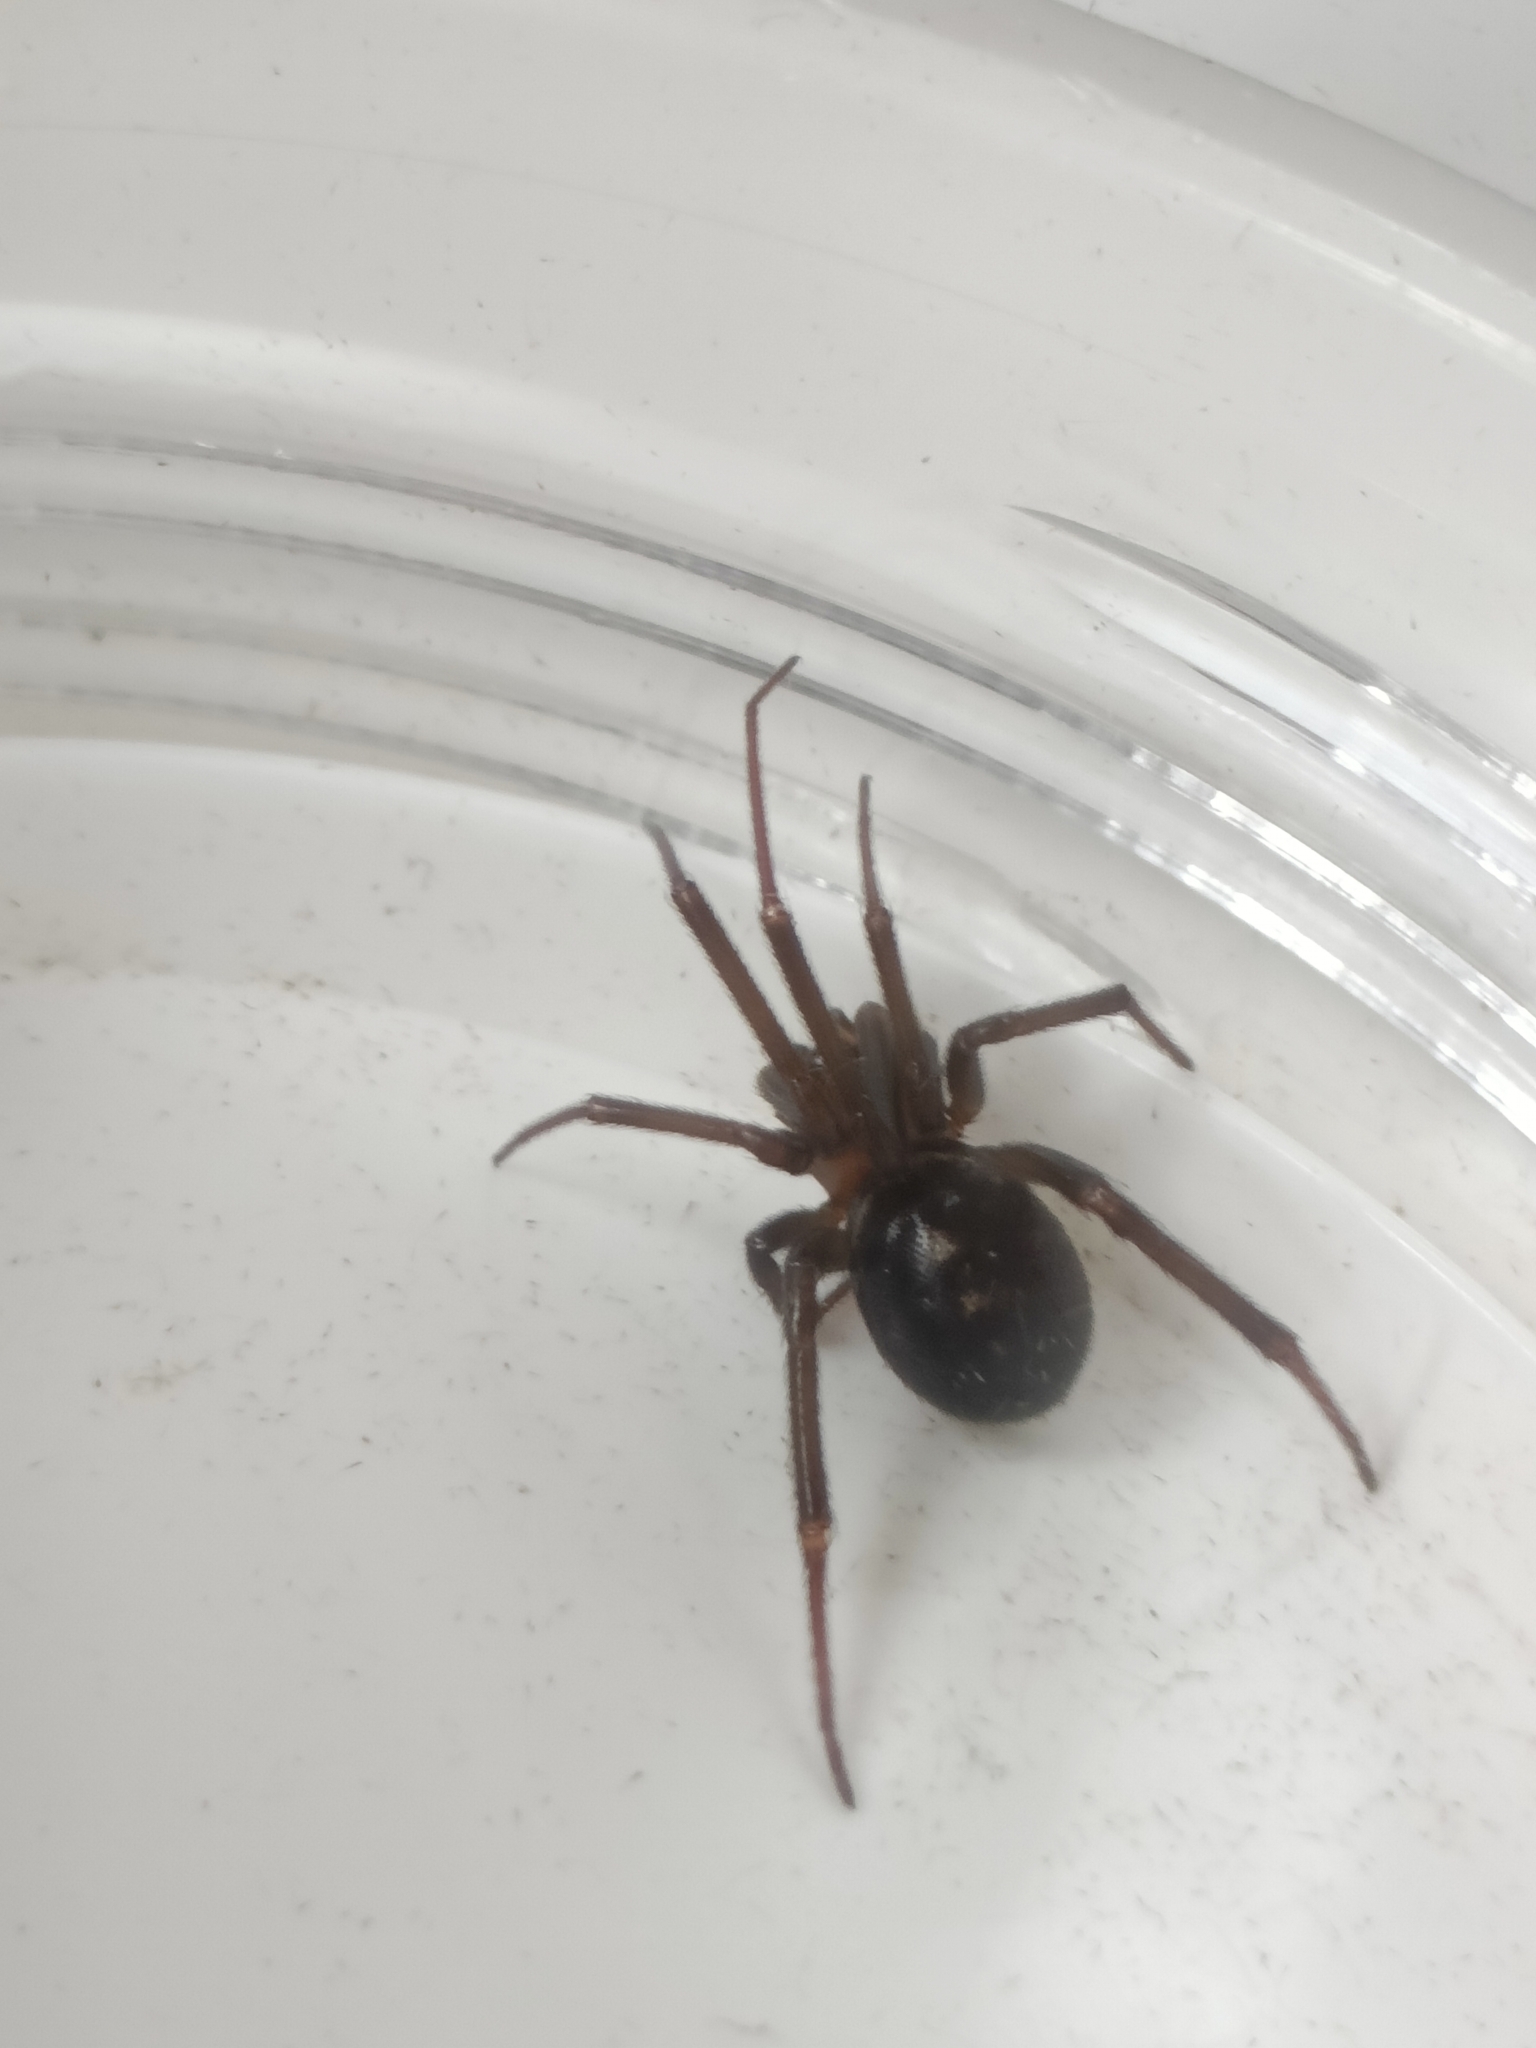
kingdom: Animalia
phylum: Arthropoda
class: Arachnida
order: Araneae
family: Theridiidae
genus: Steatoda
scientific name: Steatoda grossa
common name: False black widow
